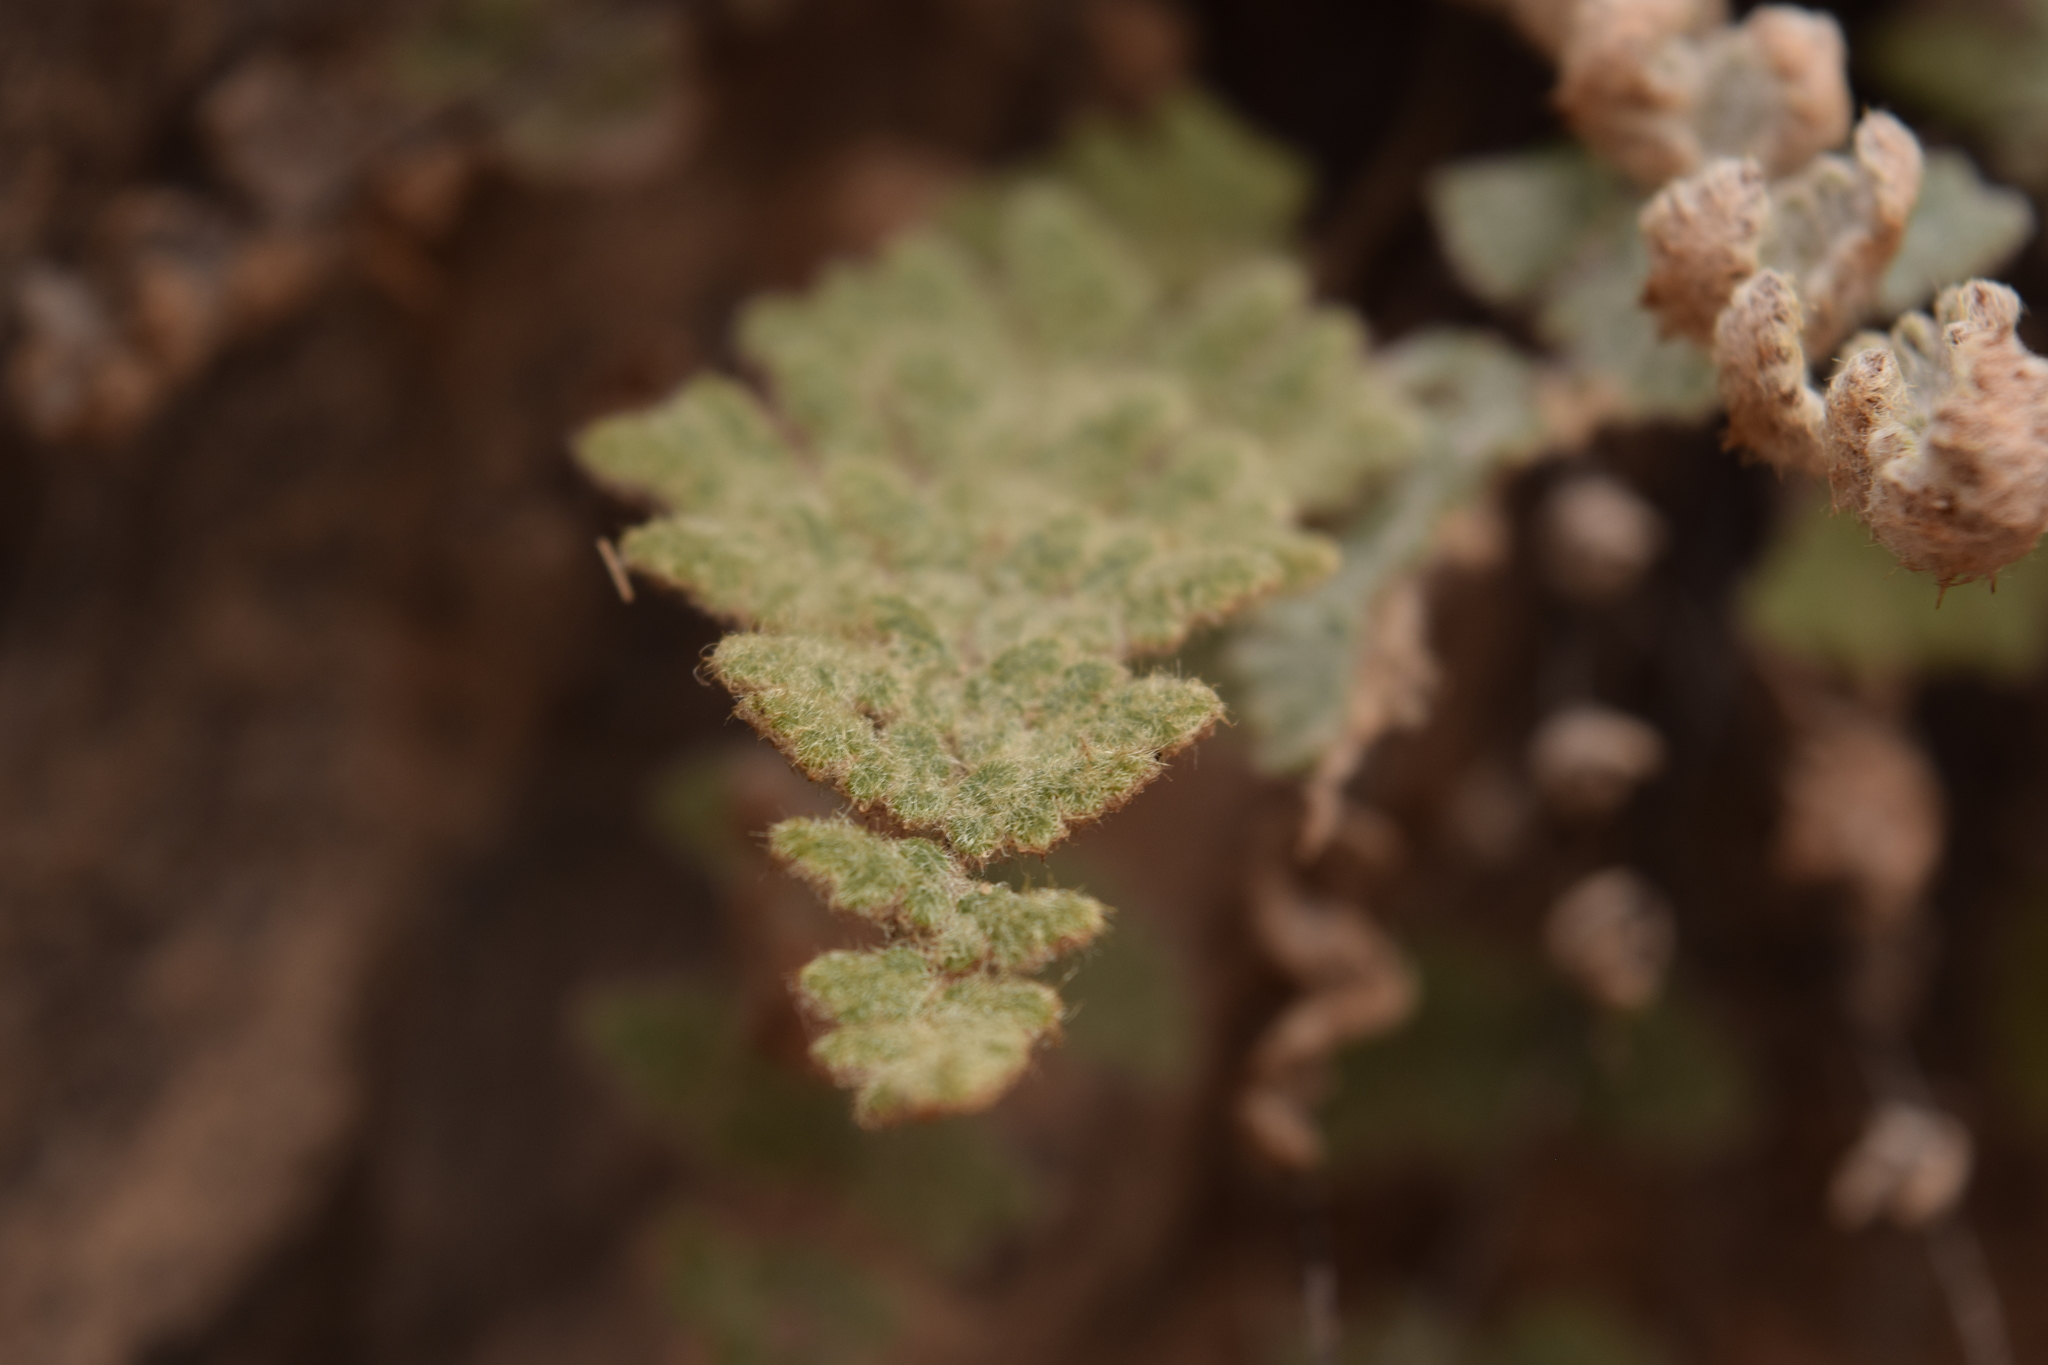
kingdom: Plantae
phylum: Tracheophyta
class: Polypodiopsida
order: Polypodiales
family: Pteridaceae
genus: Myriopteris
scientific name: Myriopteris gracilis
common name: Fee's lip fern
